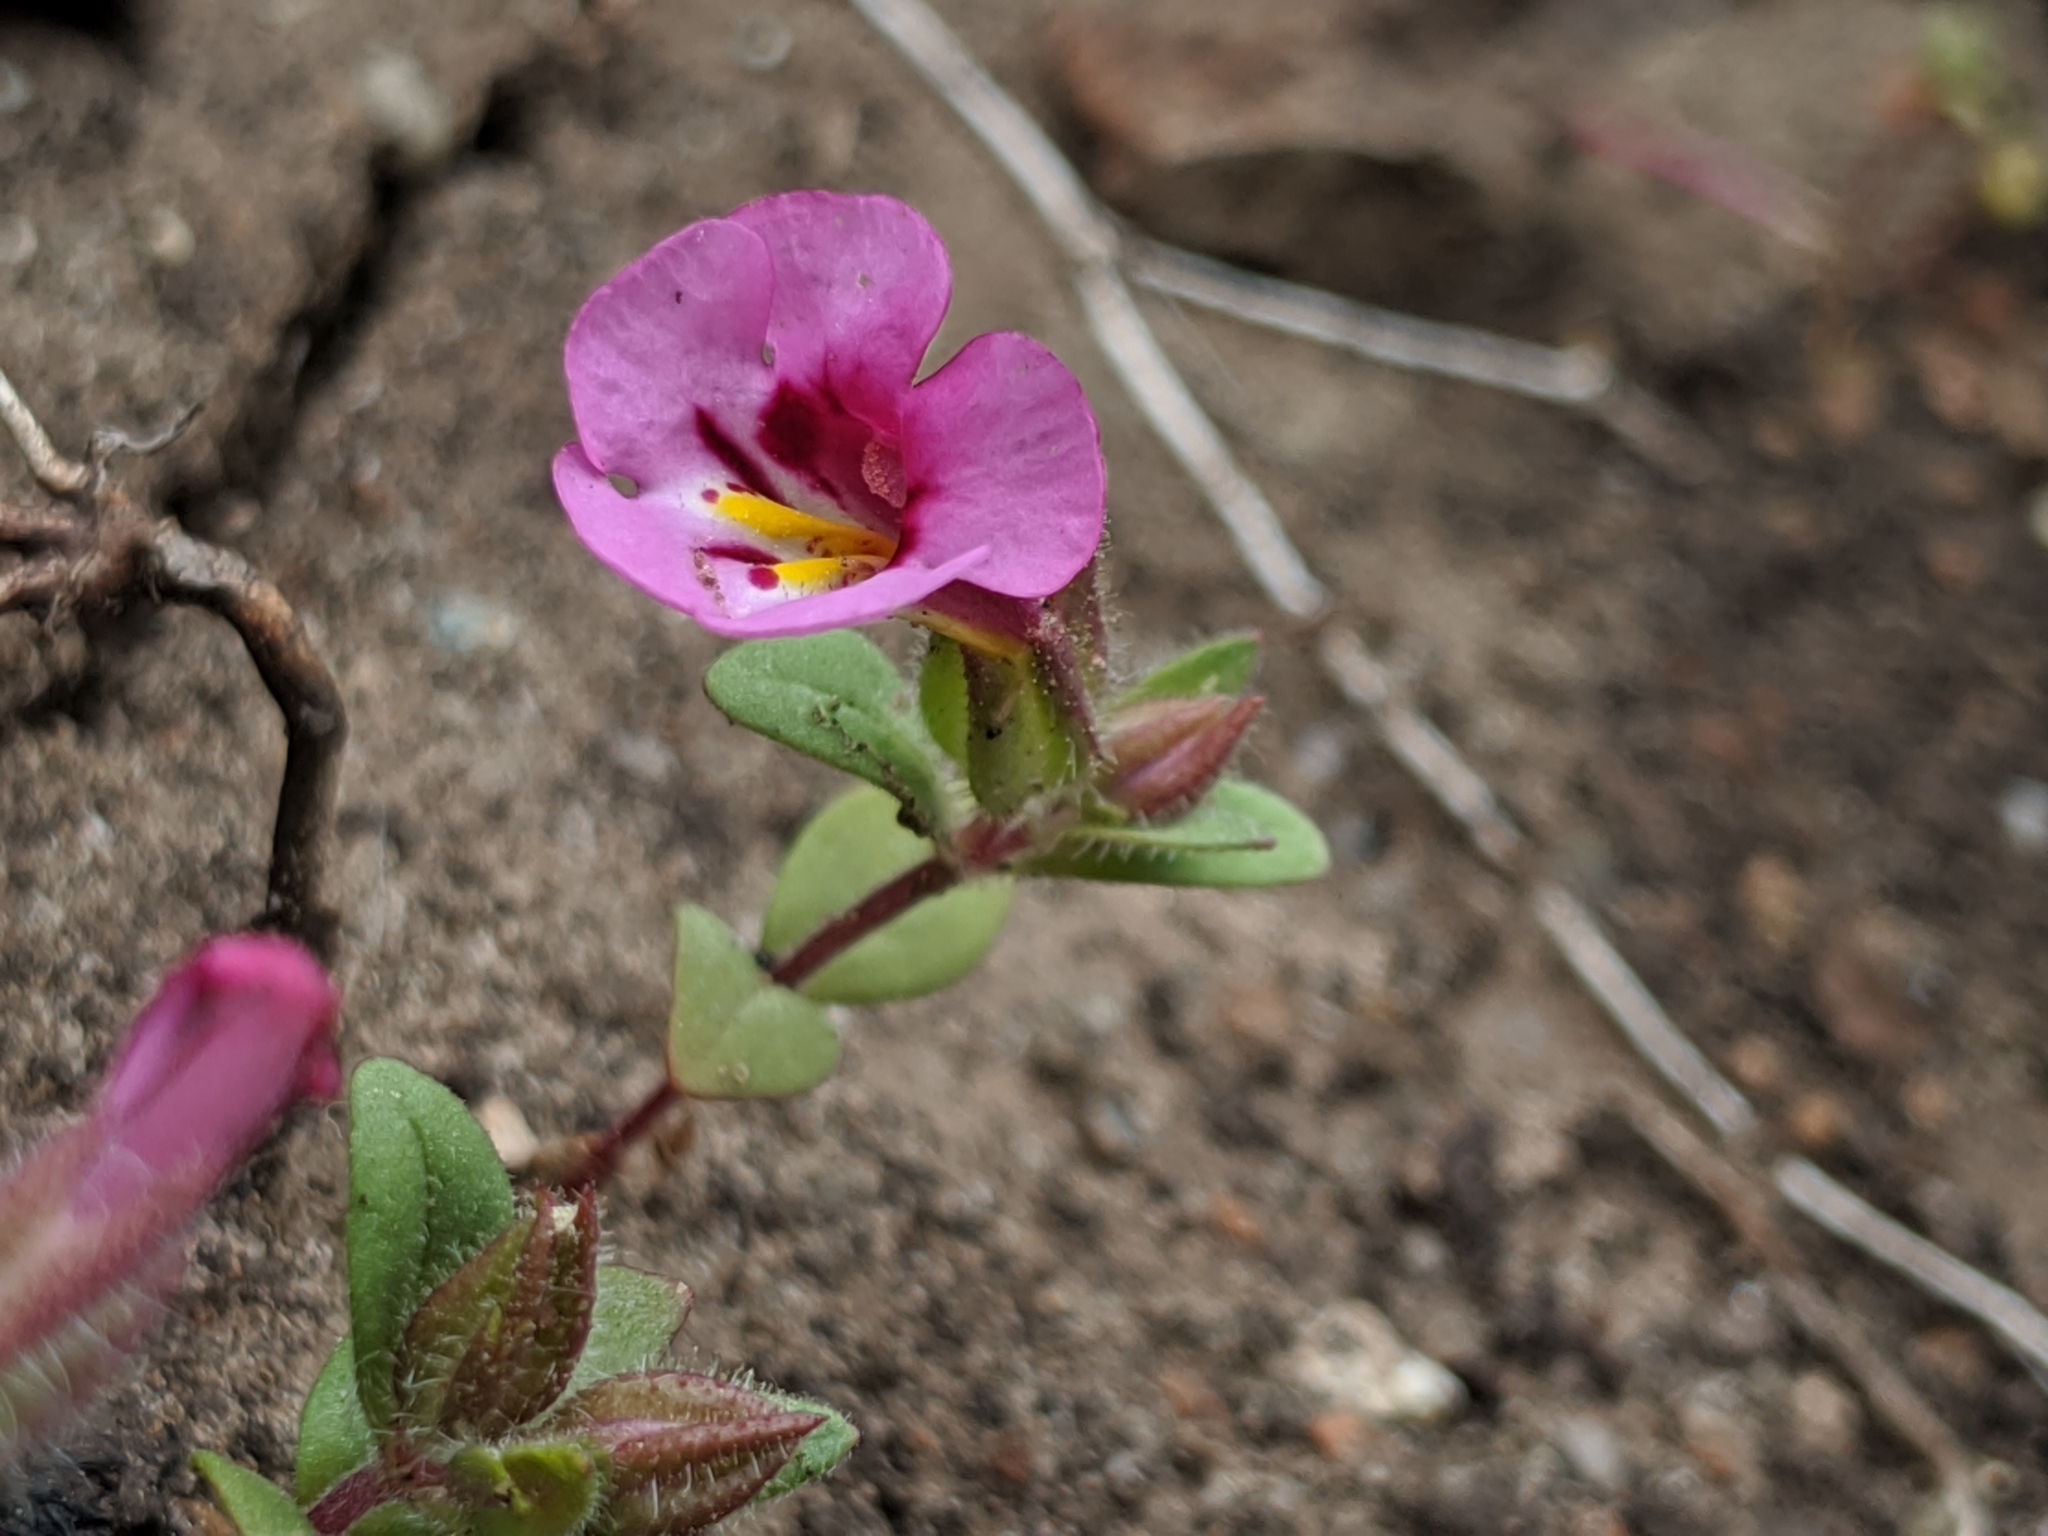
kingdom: Plantae
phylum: Tracheophyta
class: Magnoliopsida
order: Lamiales
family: Phrymaceae
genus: Diplacus
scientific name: Diplacus fremontii
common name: Fremont's monkey-flower
